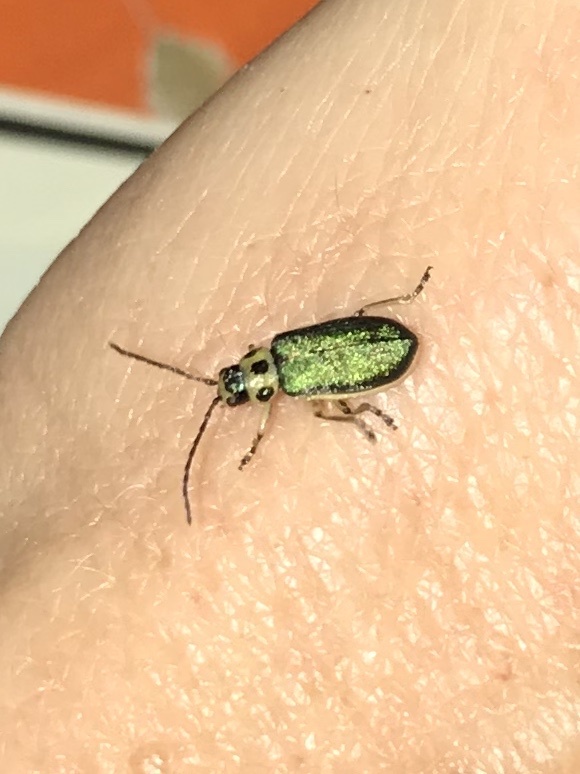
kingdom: Animalia
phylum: Arthropoda
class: Insecta
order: Coleoptera
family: Chrysomelidae
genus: Trirhabda
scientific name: Trirhabda flavolimbata
